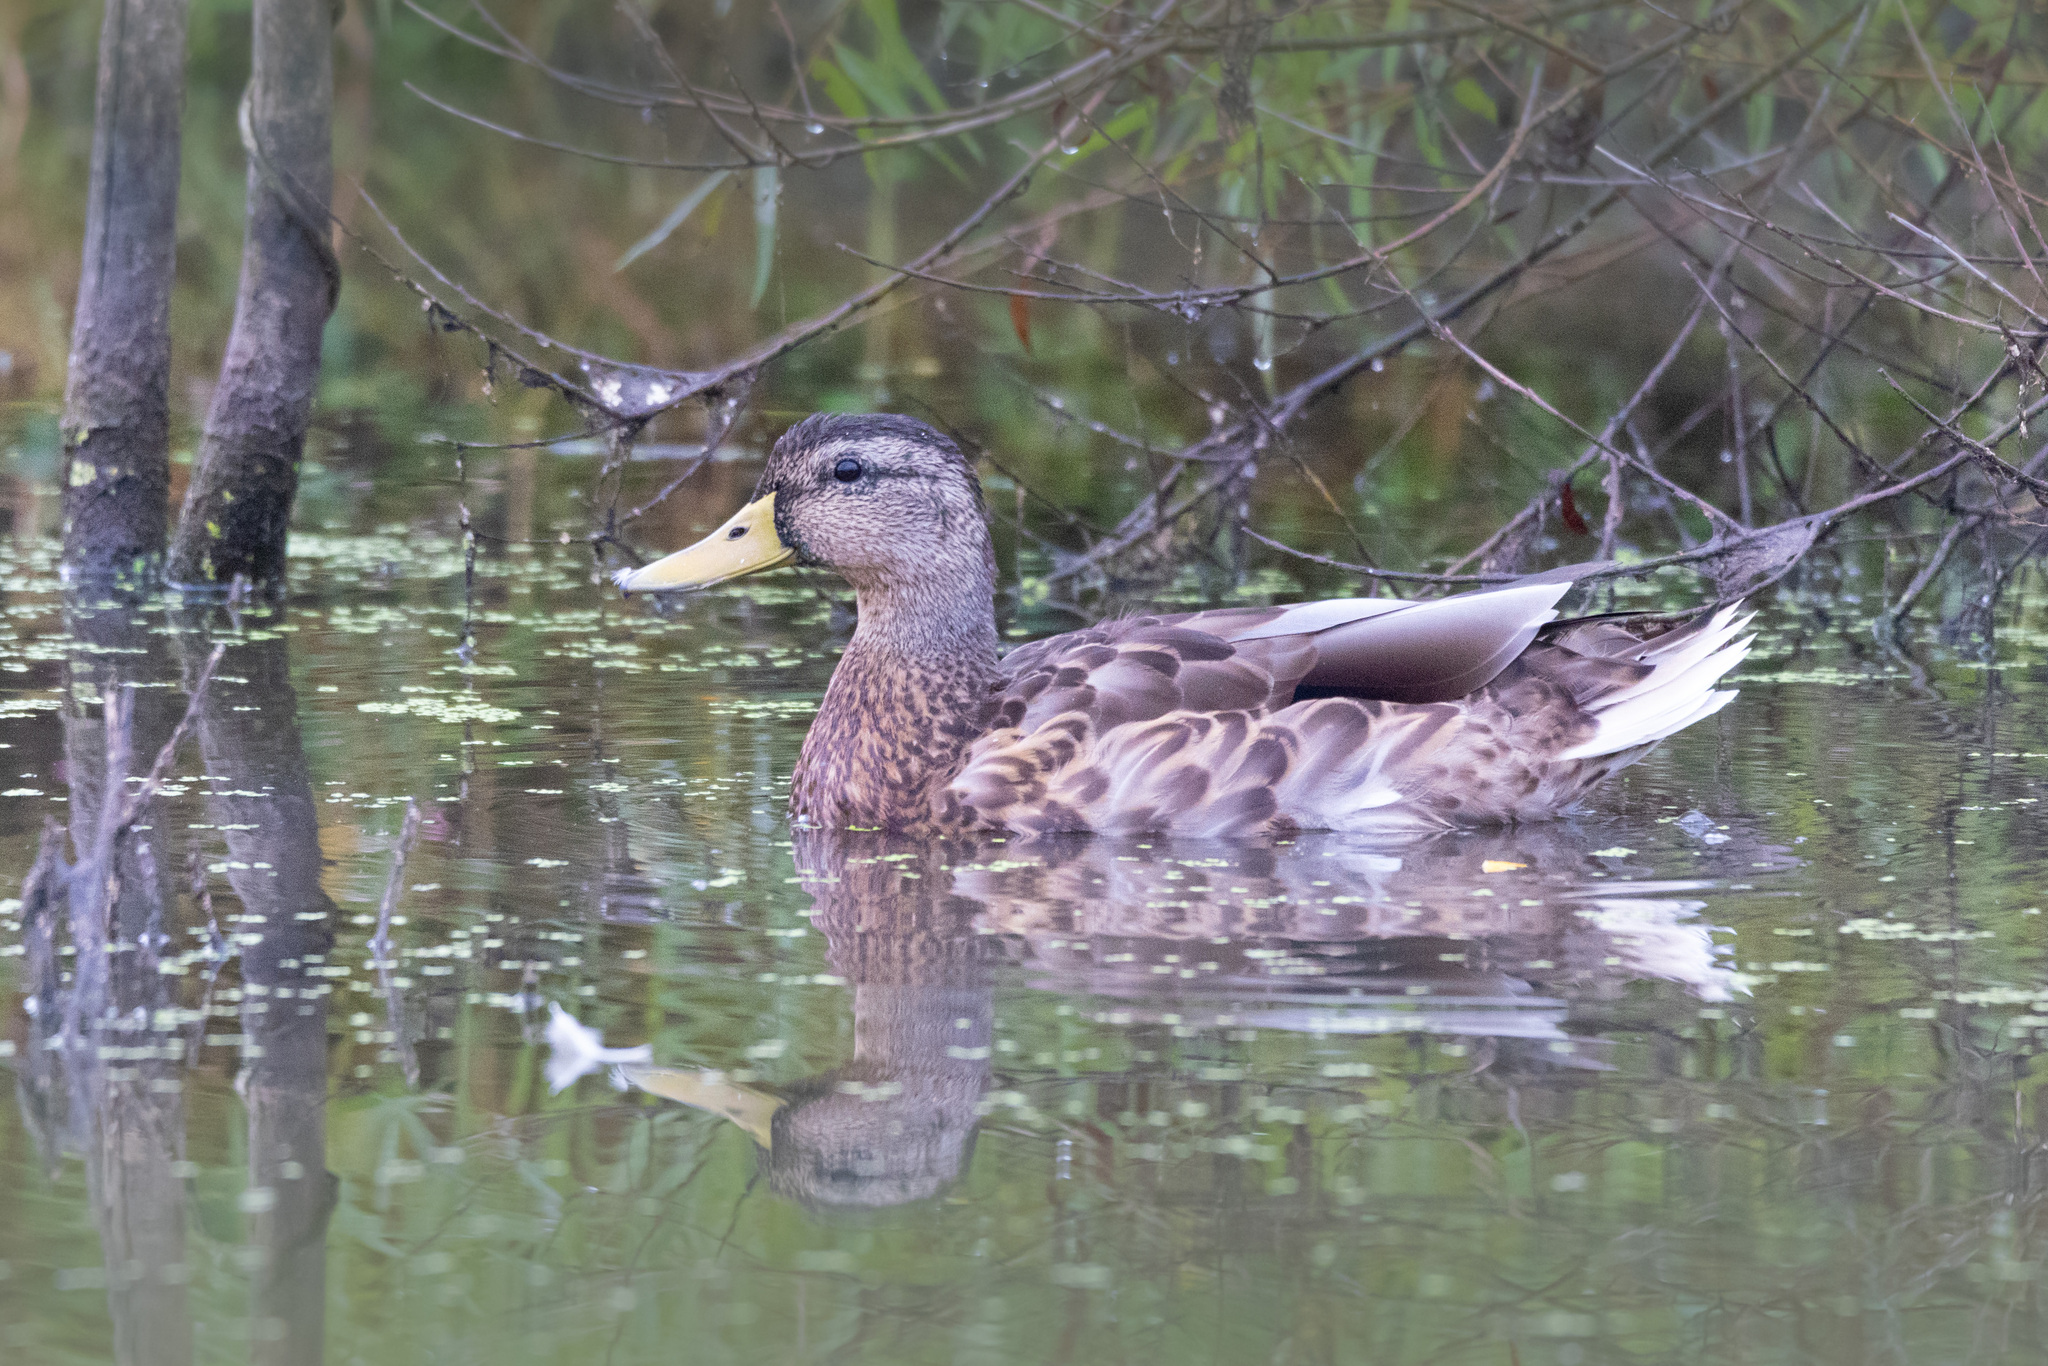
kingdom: Animalia
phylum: Chordata
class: Aves
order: Anseriformes
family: Anatidae
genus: Anas
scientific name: Anas platyrhynchos
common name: Mallard
